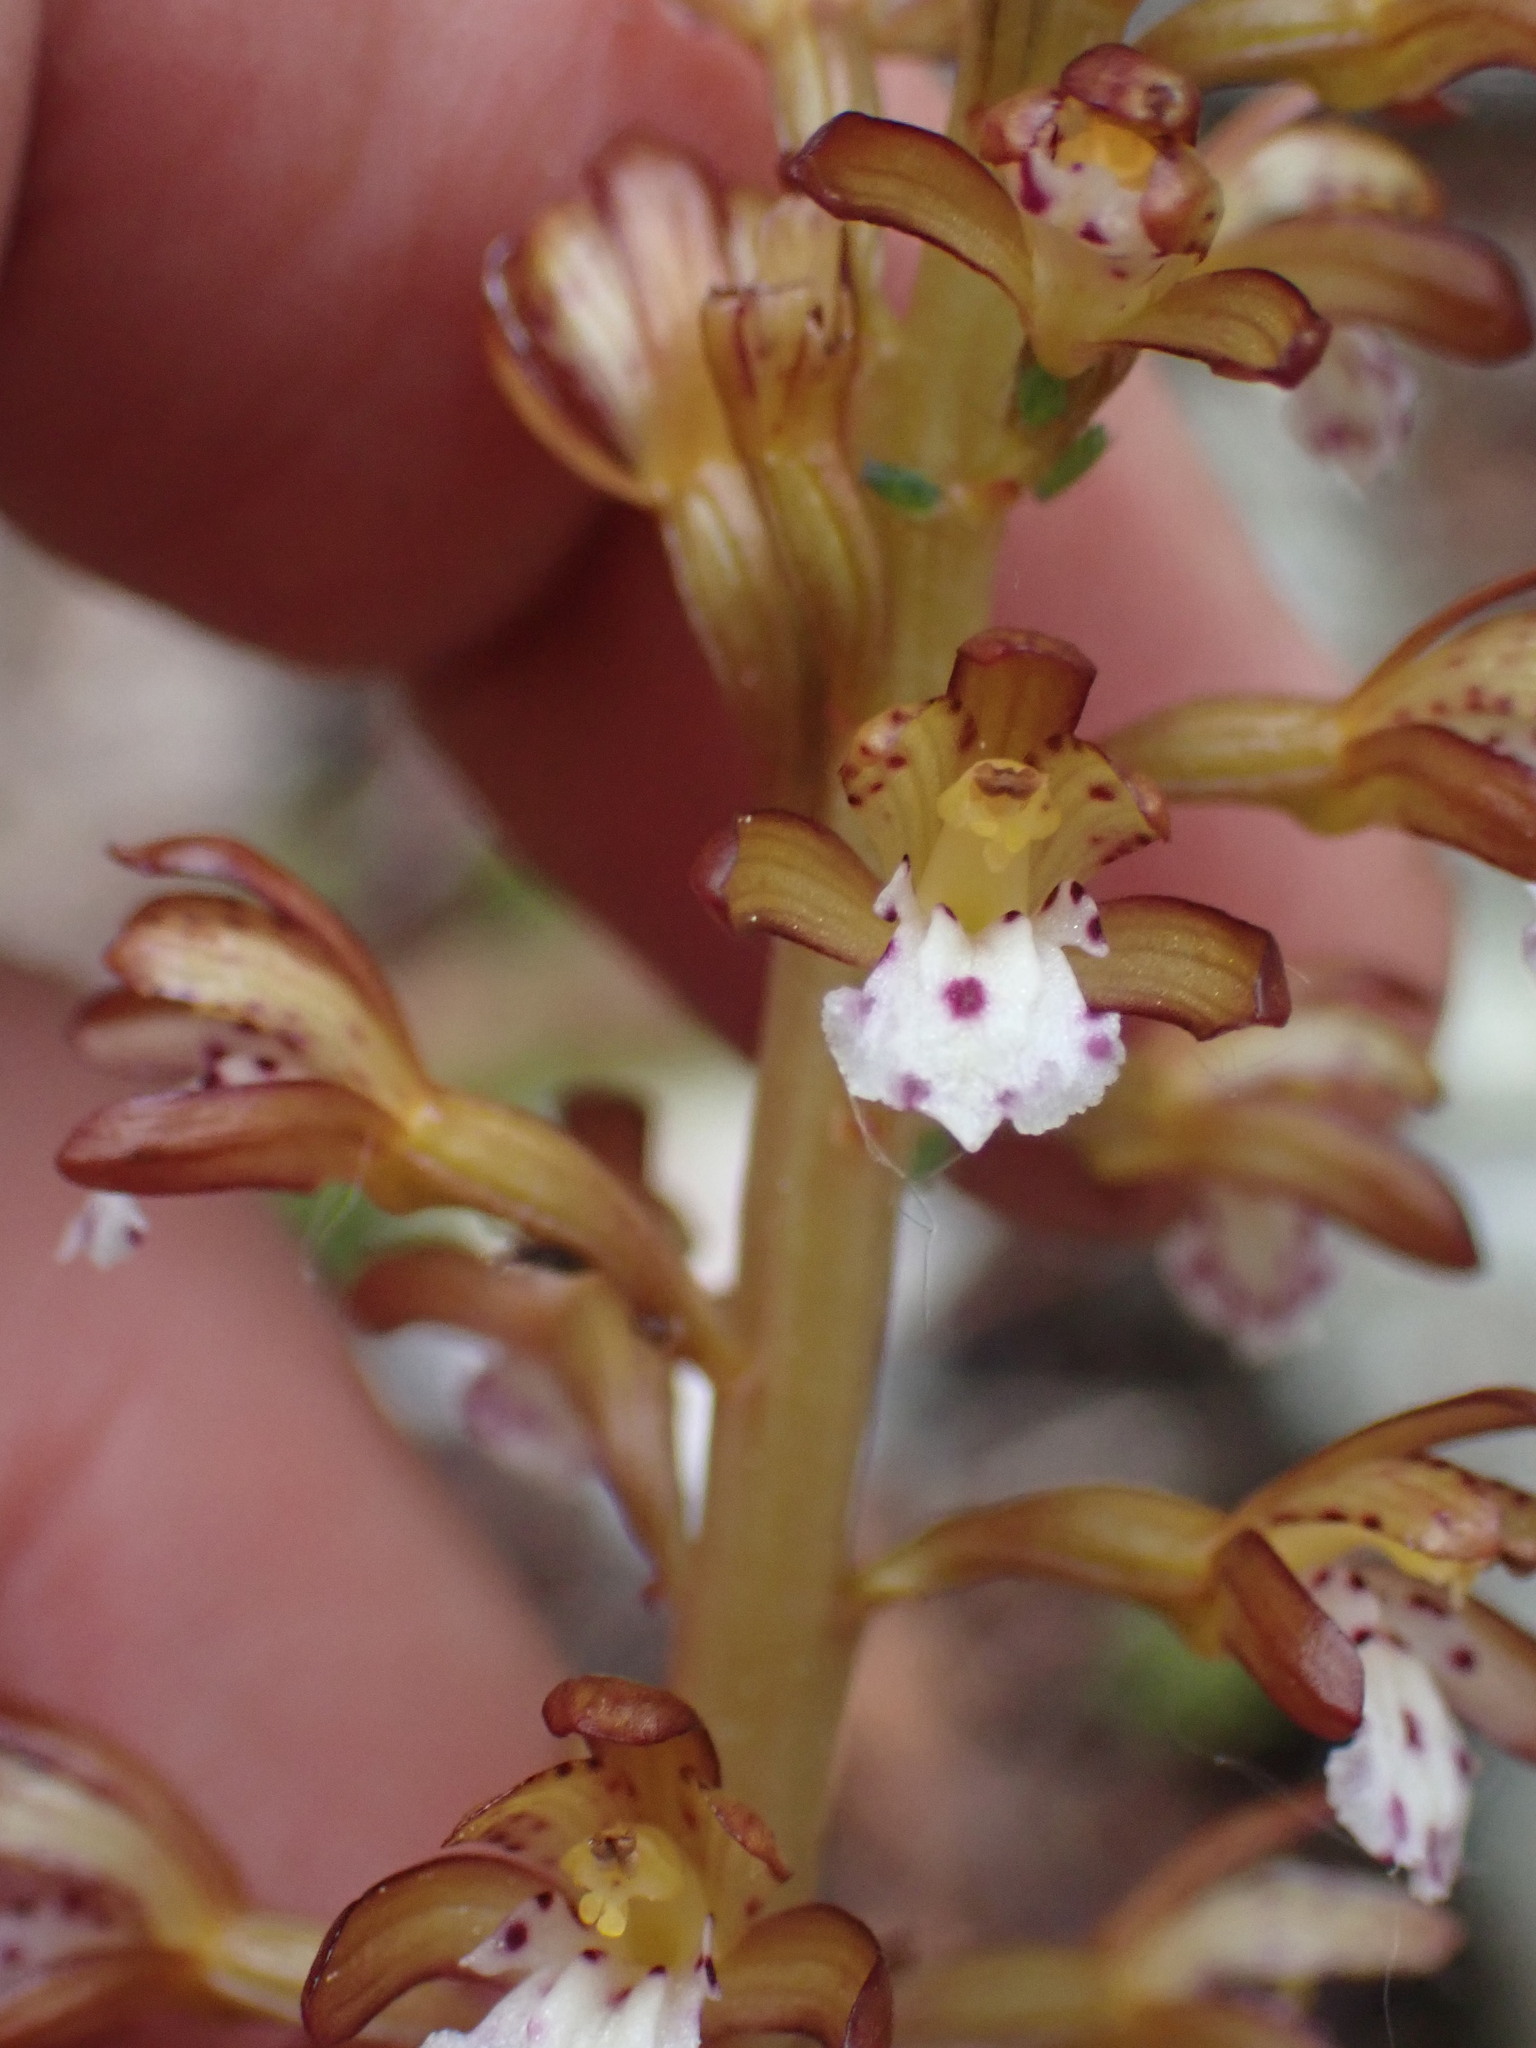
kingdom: Plantae
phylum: Tracheophyta
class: Liliopsida
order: Asparagales
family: Orchidaceae
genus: Corallorhiza
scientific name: Corallorhiza maculata
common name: Spotted coralroot
